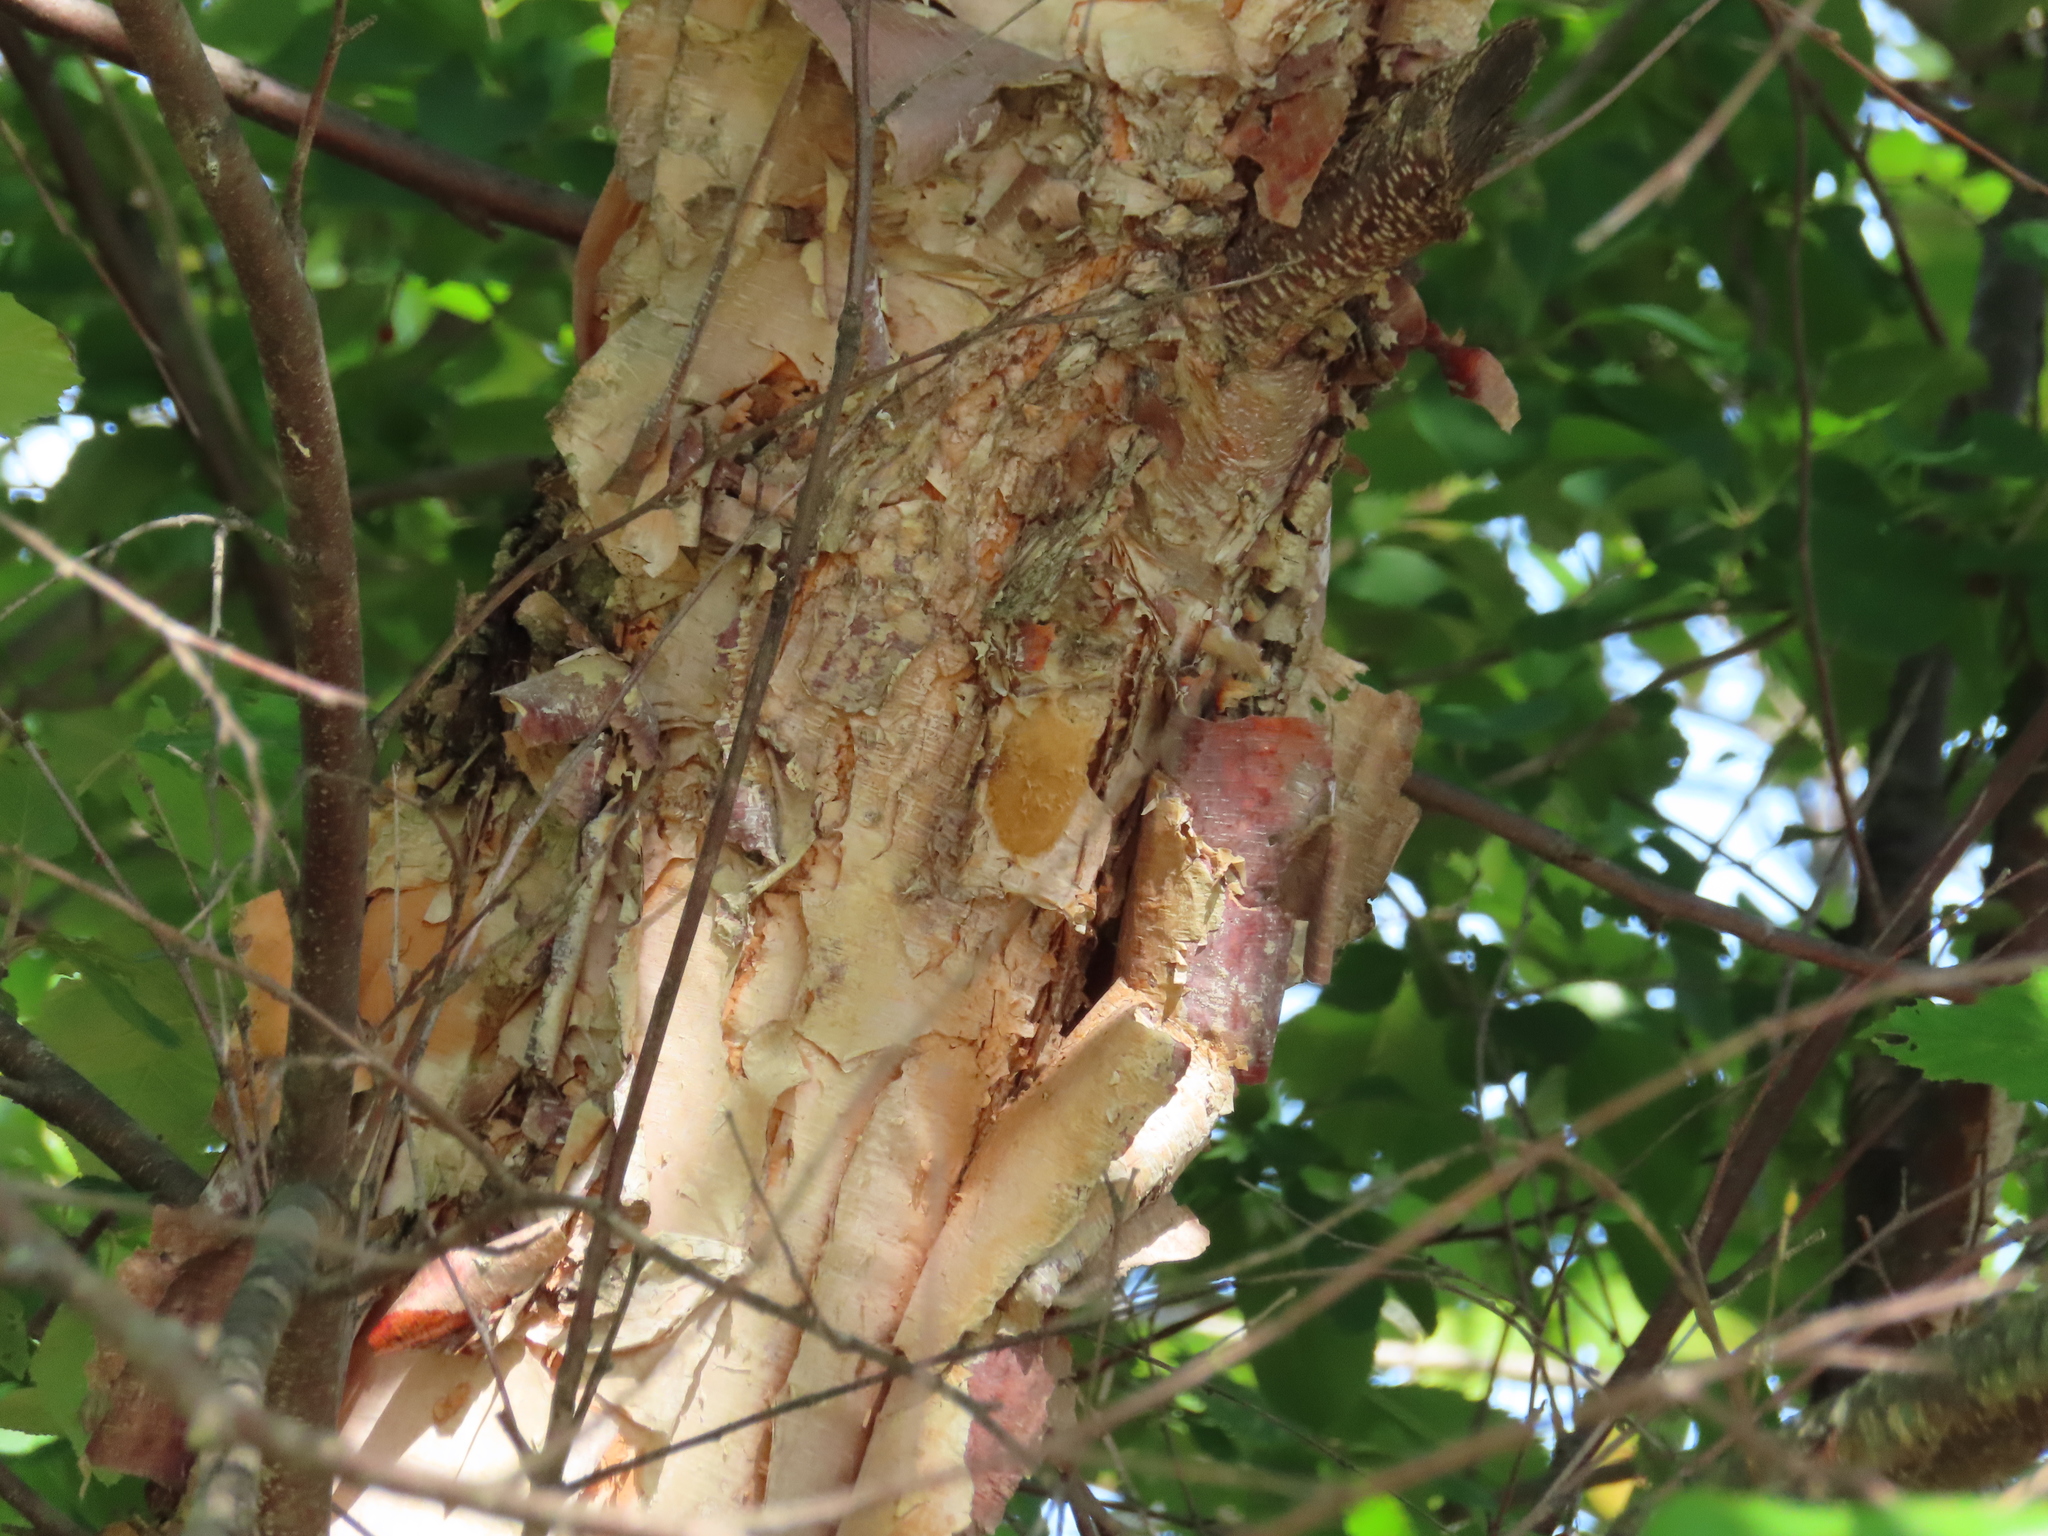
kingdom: Plantae
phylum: Tracheophyta
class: Magnoliopsida
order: Fagales
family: Betulaceae
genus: Betula
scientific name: Betula nigra
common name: Black birch
